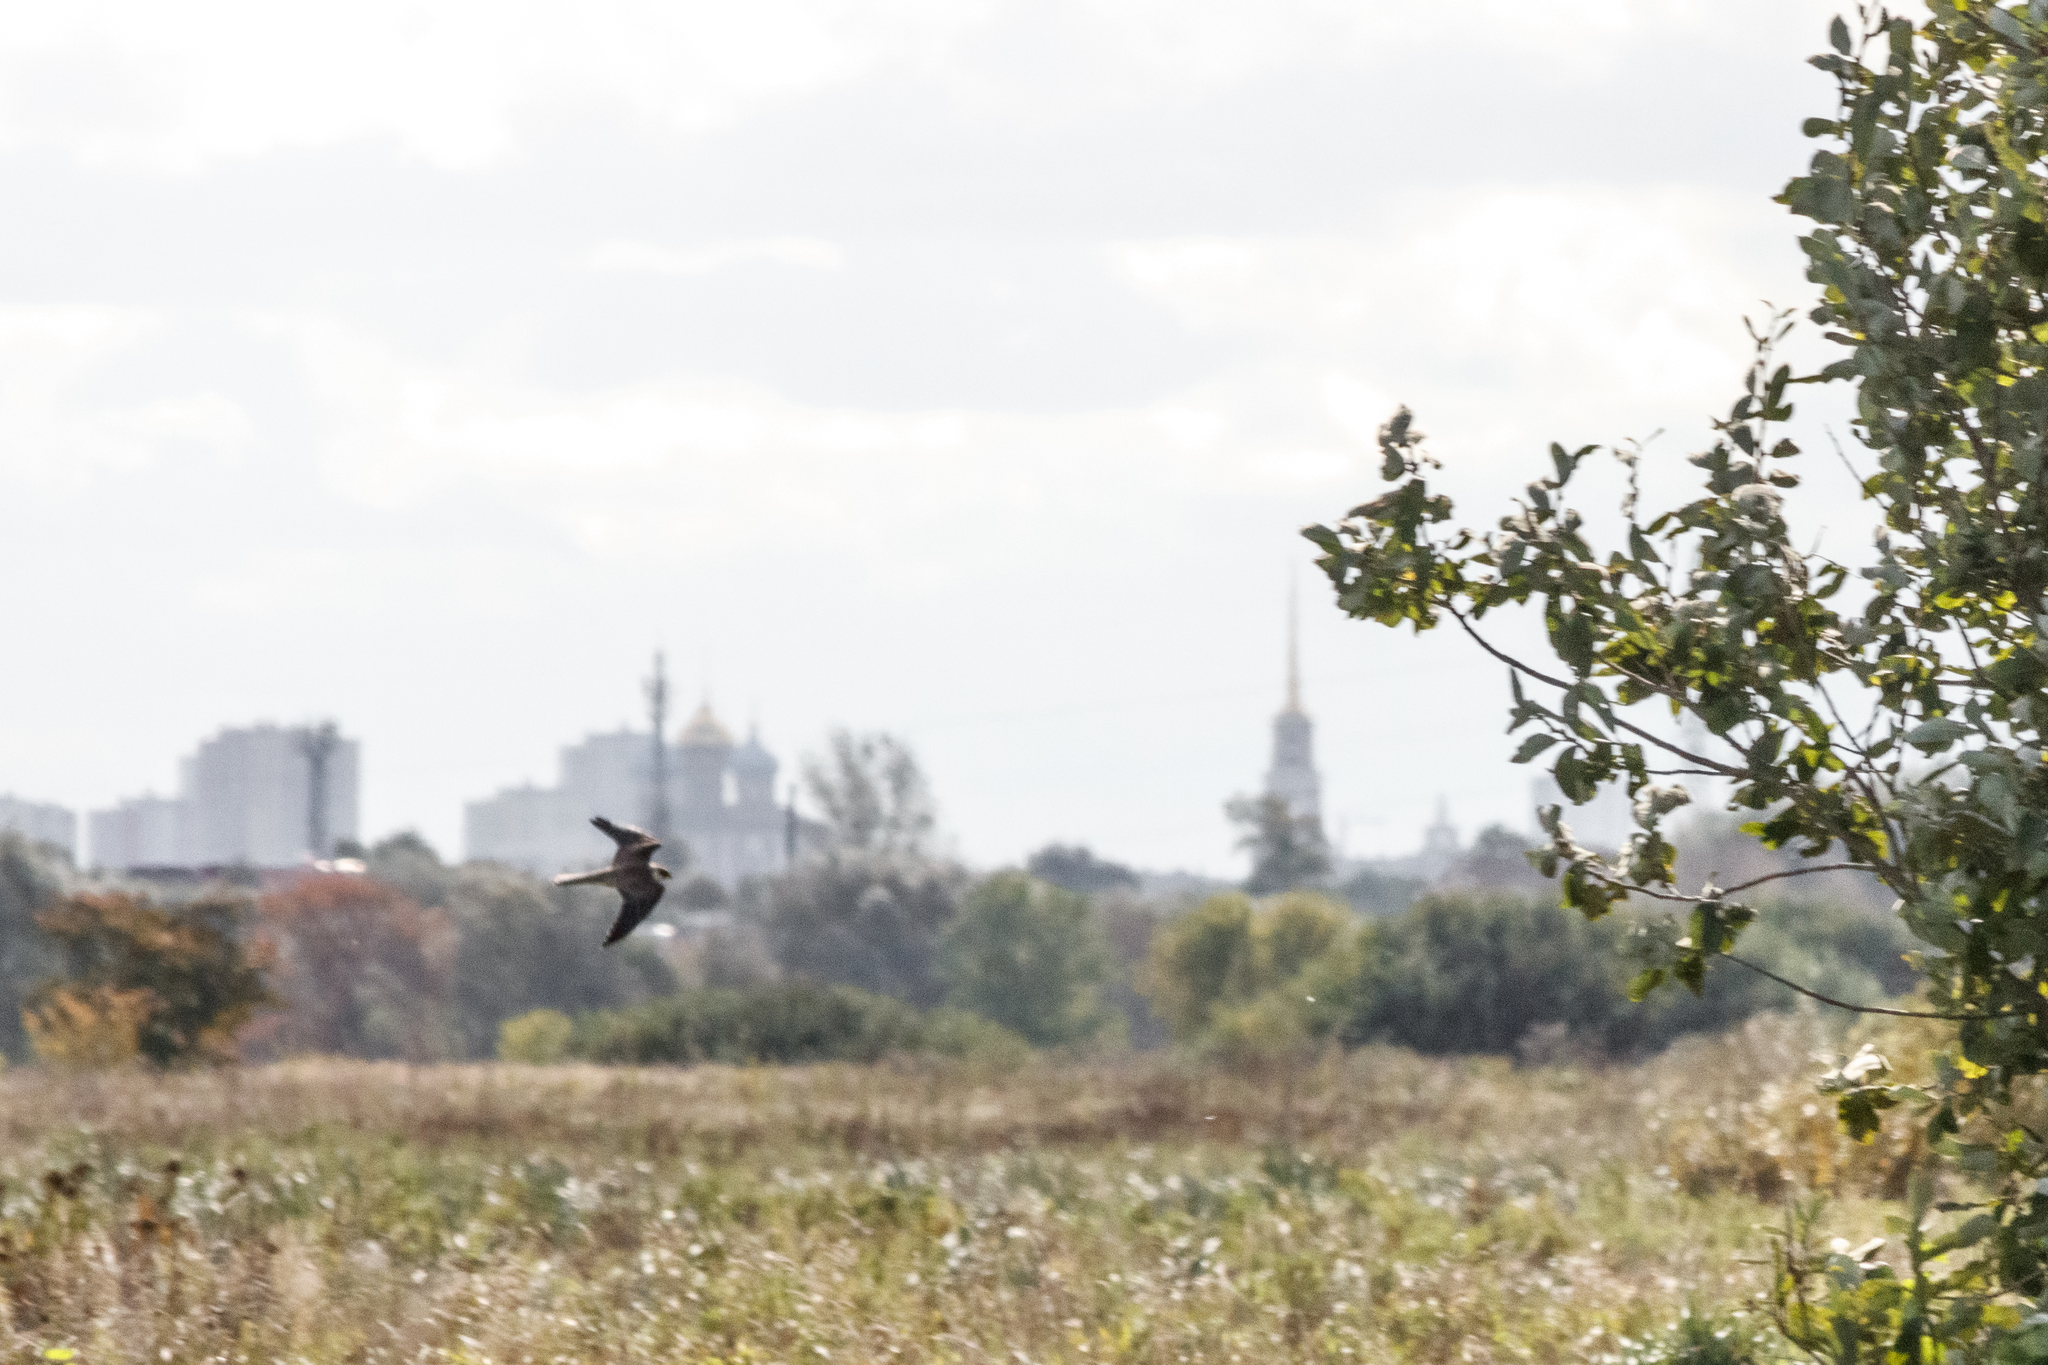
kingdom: Animalia
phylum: Chordata
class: Aves
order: Falconiformes
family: Falconidae
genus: Falco
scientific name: Falco subbuteo
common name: Eurasian hobby
